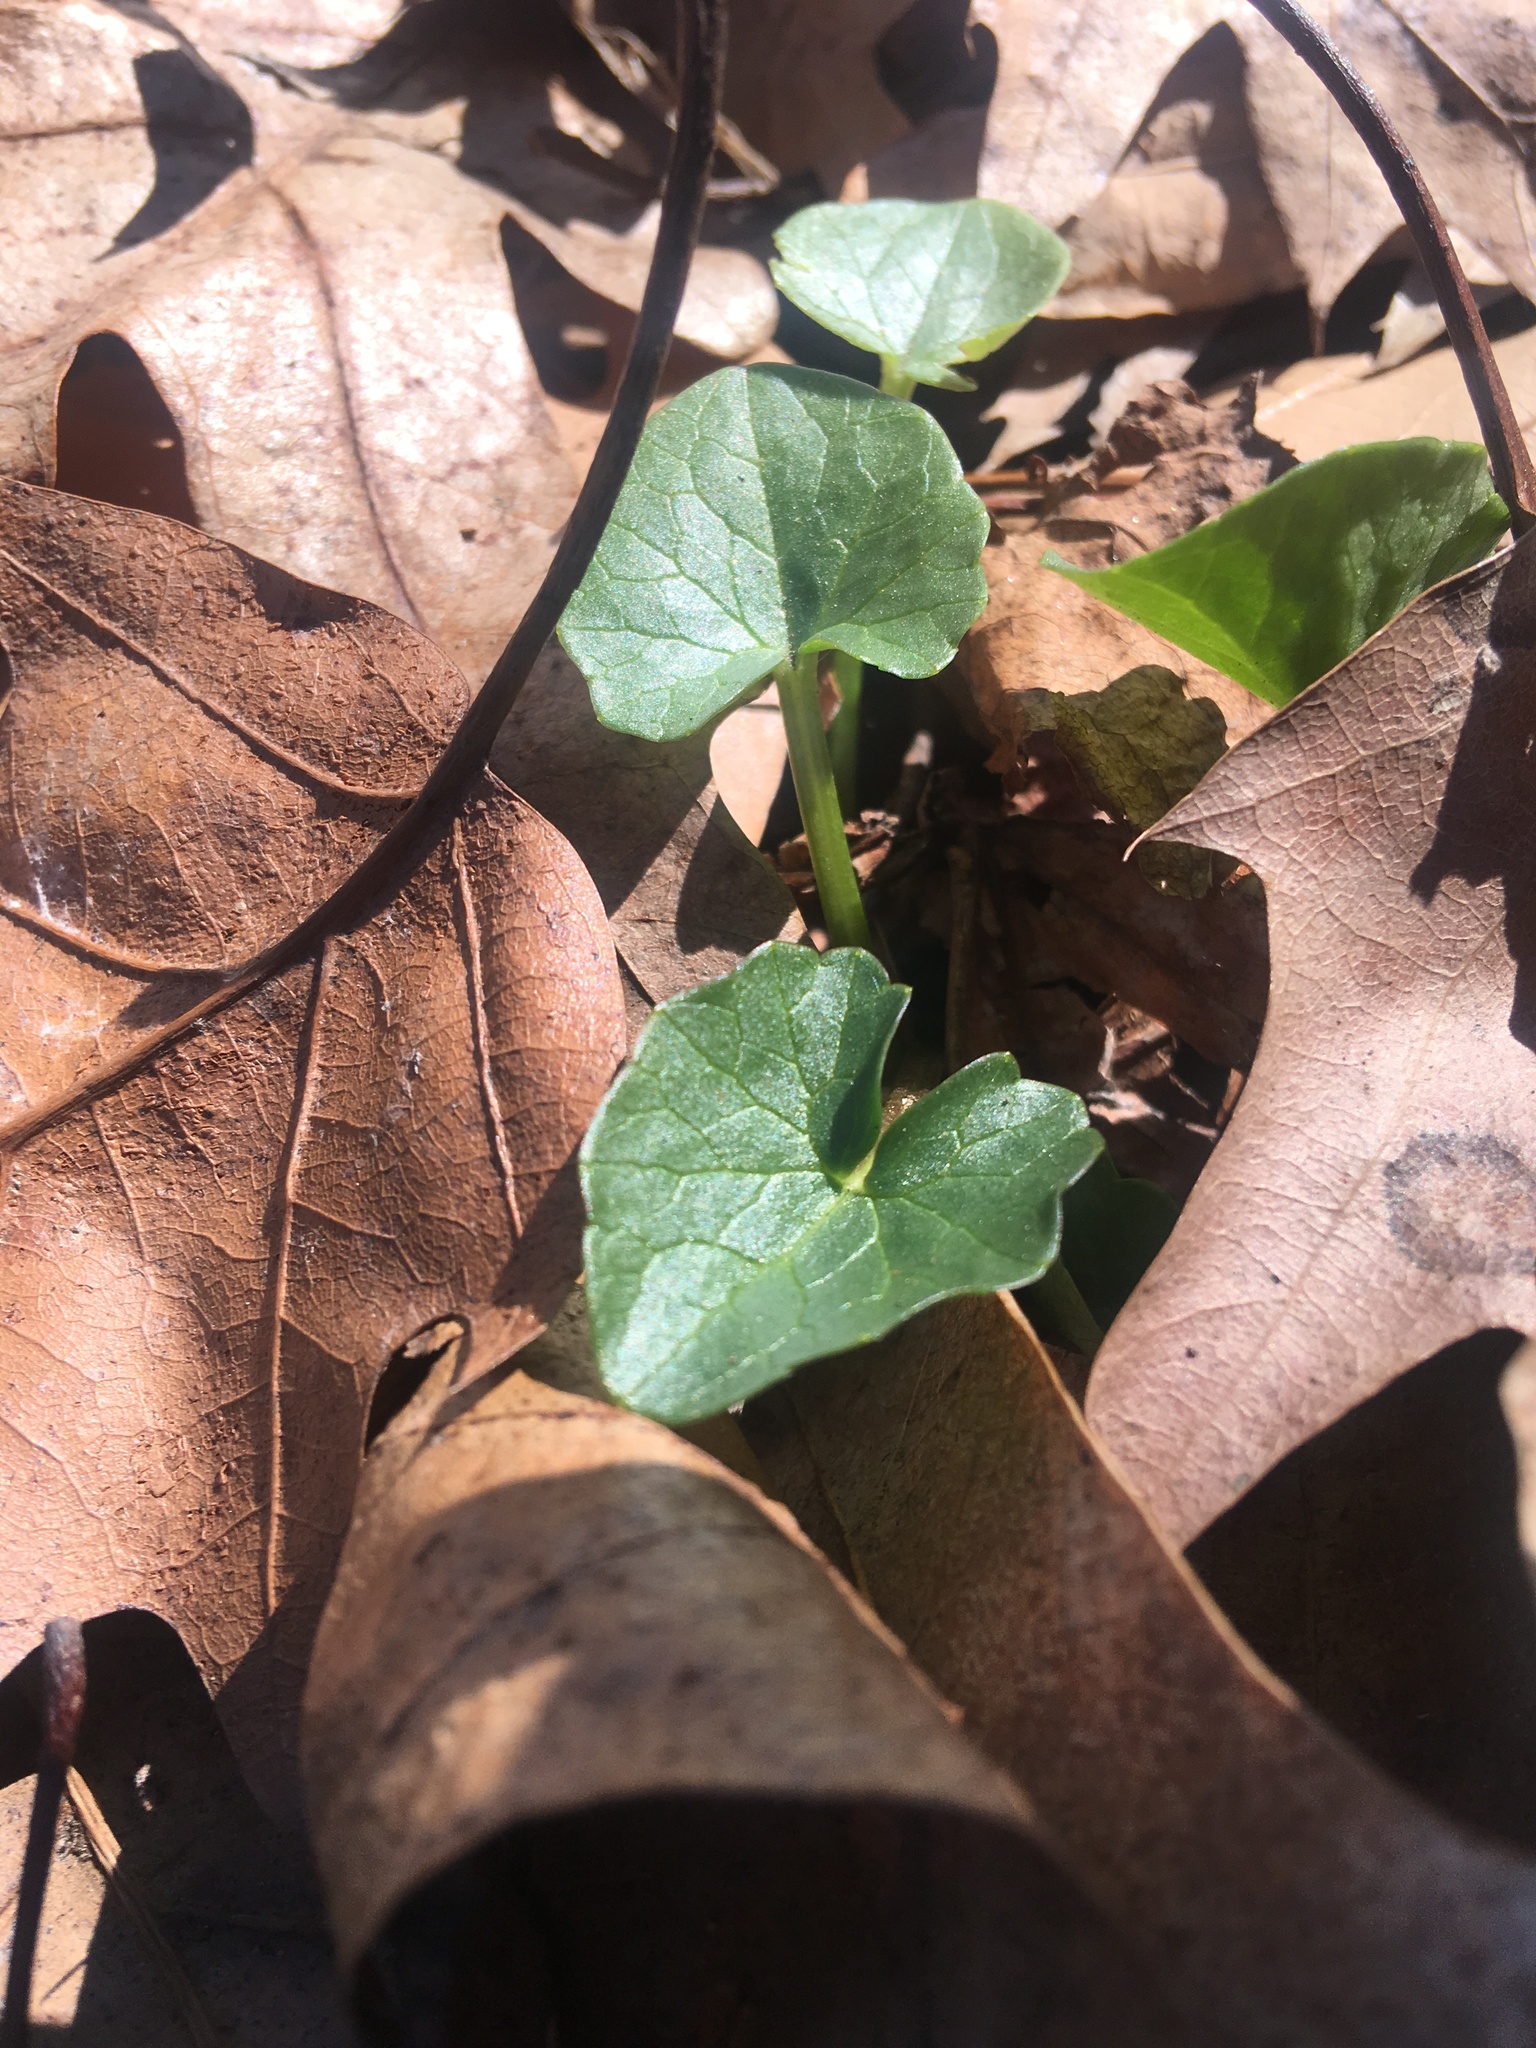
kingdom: Plantae
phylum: Tracheophyta
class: Magnoliopsida
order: Ranunculales
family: Ranunculaceae
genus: Ficaria
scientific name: Ficaria verna
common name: Lesser celandine
